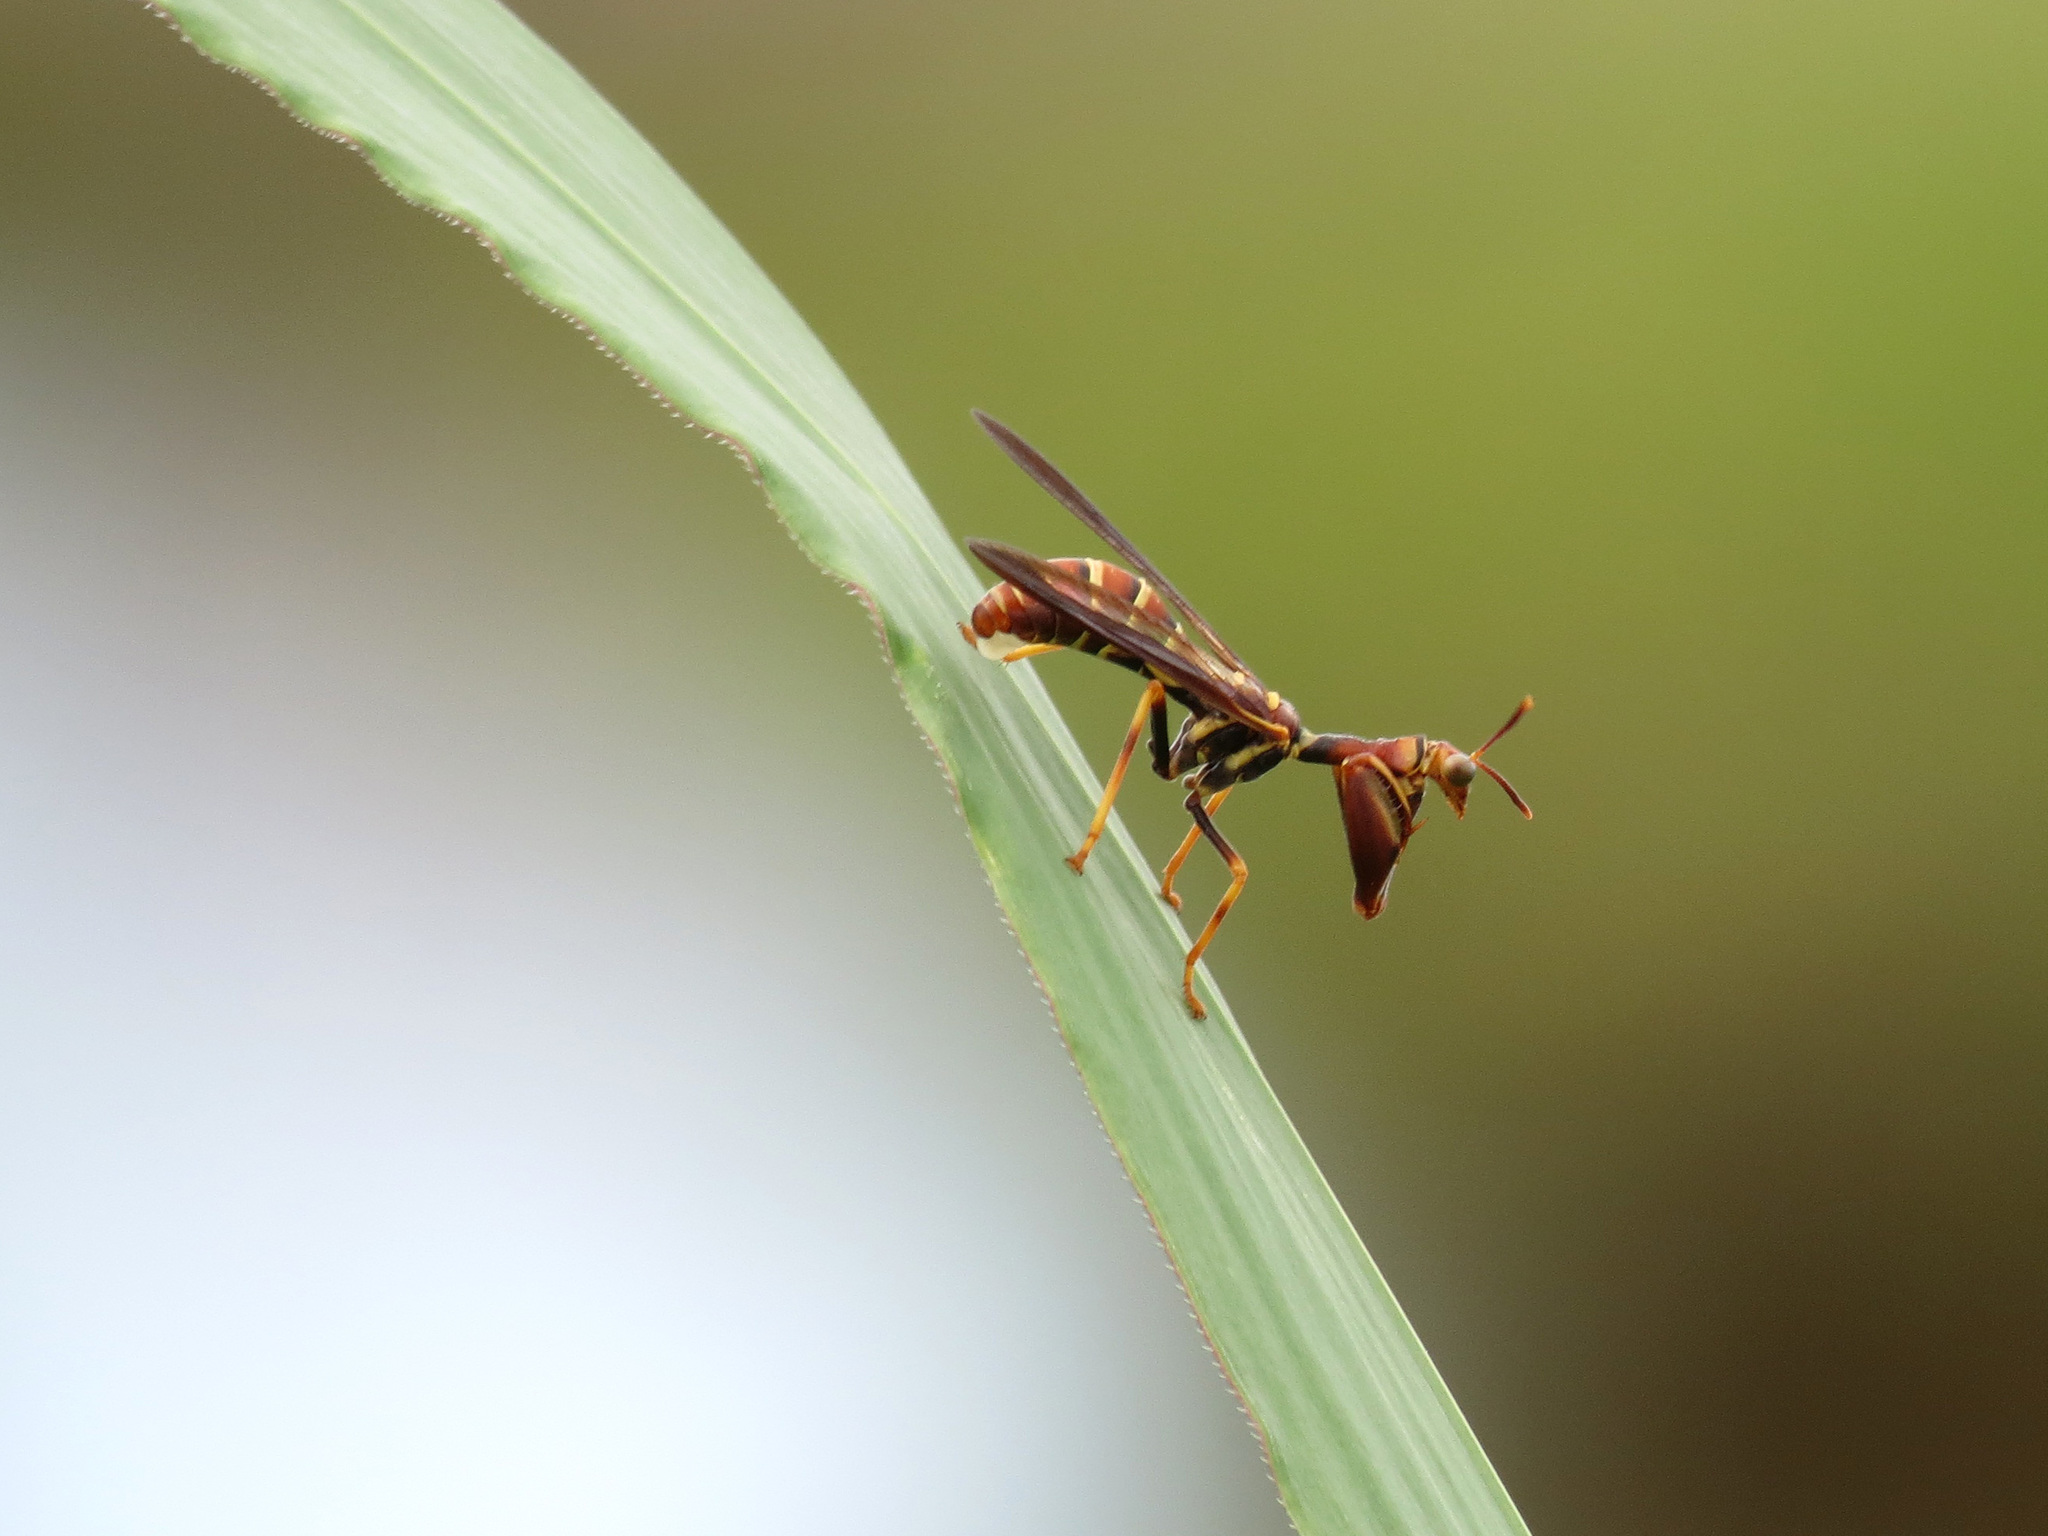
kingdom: Animalia
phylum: Arthropoda
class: Insecta
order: Neuroptera
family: Mantispidae
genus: Climaciella
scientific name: Climaciella brunnea
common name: Brown wasp mantidfly
